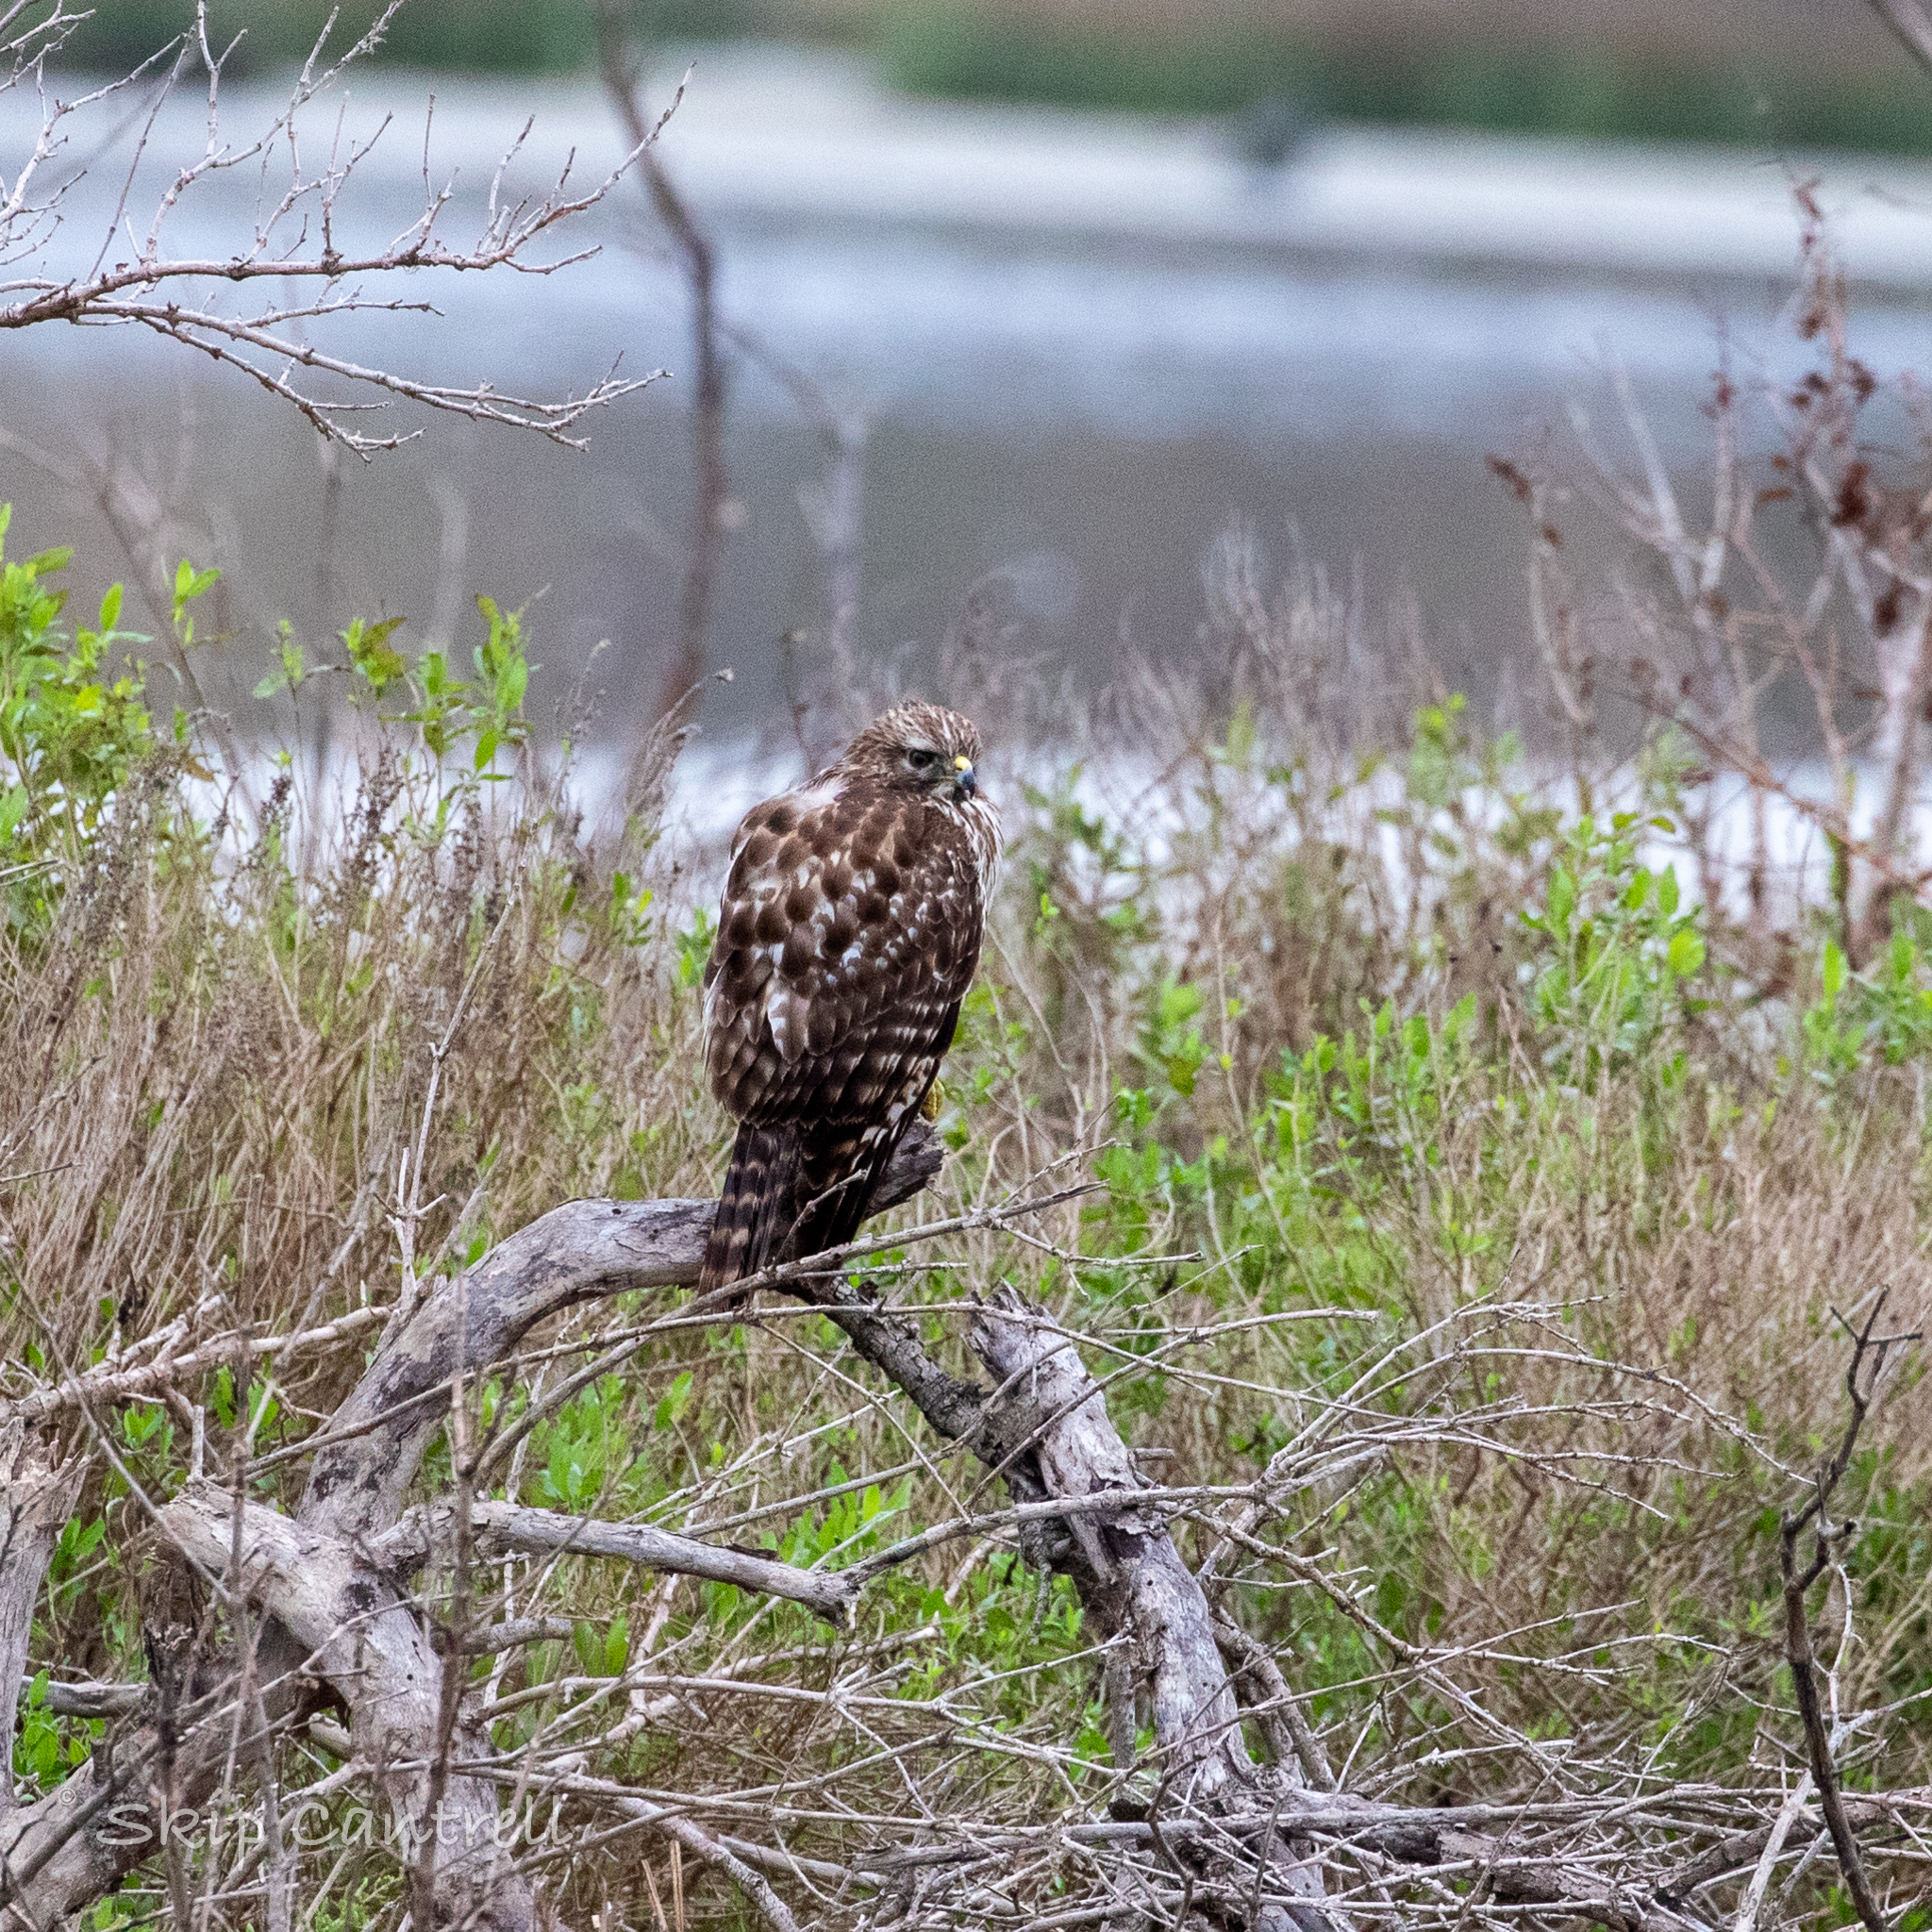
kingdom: Animalia
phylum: Chordata
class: Aves
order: Accipitriformes
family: Accipitridae
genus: Buteo
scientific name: Buteo lineatus
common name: Red-shouldered hawk
